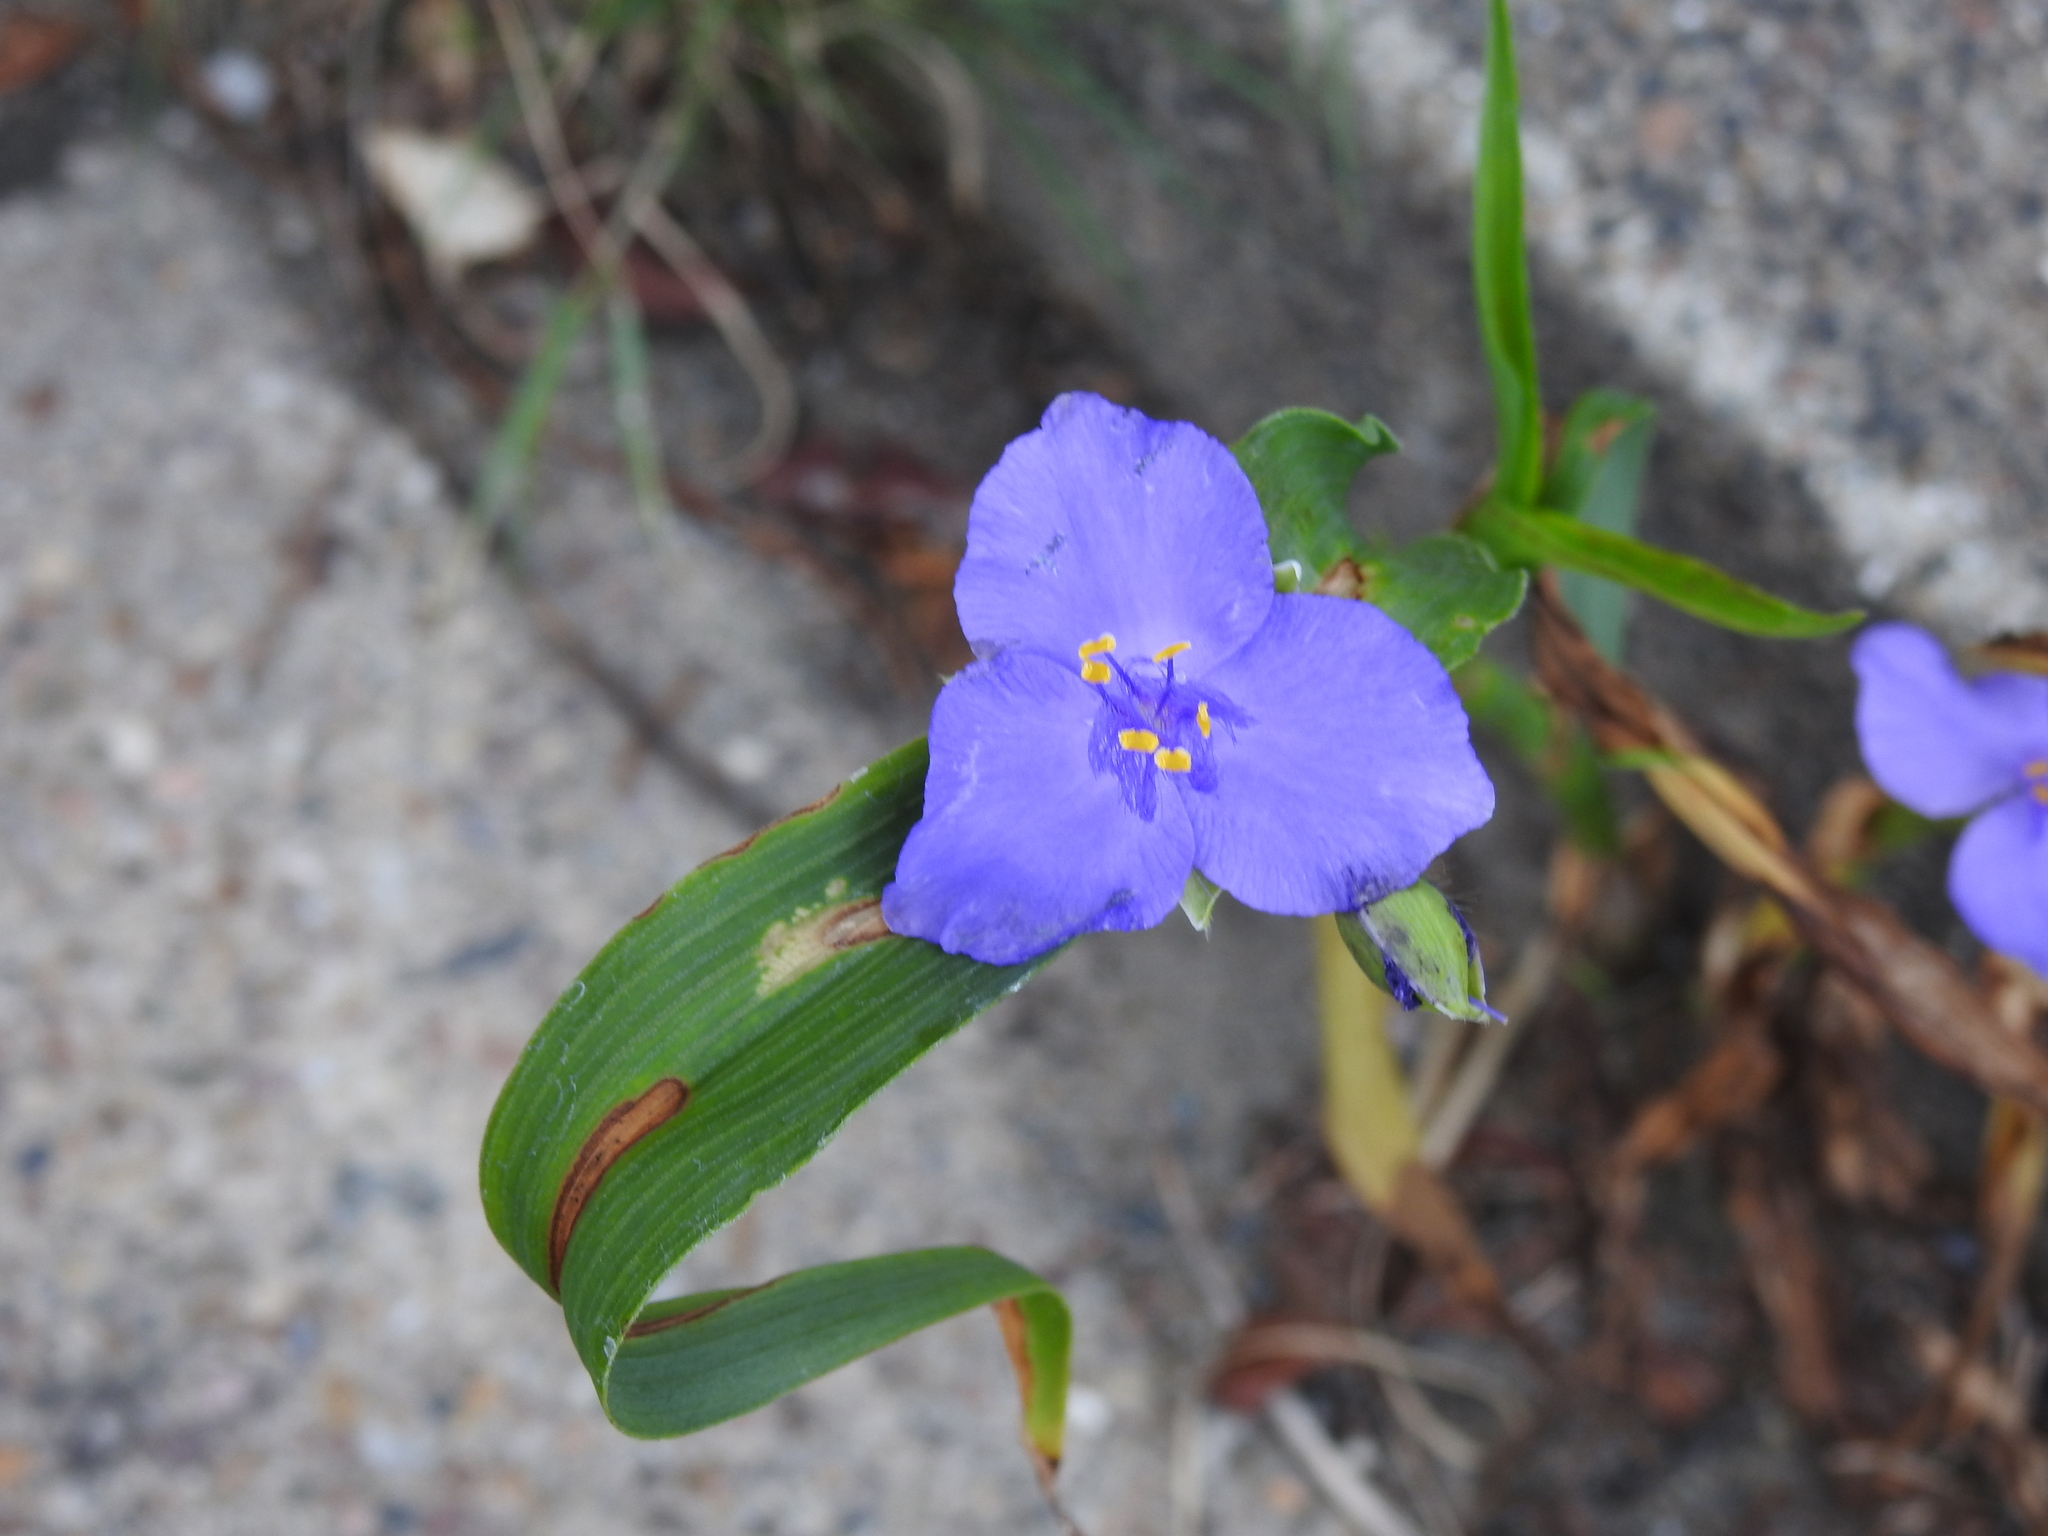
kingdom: Plantae
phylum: Tracheophyta
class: Liliopsida
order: Commelinales
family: Commelinaceae
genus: Tradescantia
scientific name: Tradescantia virginiana
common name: Spiderwort
